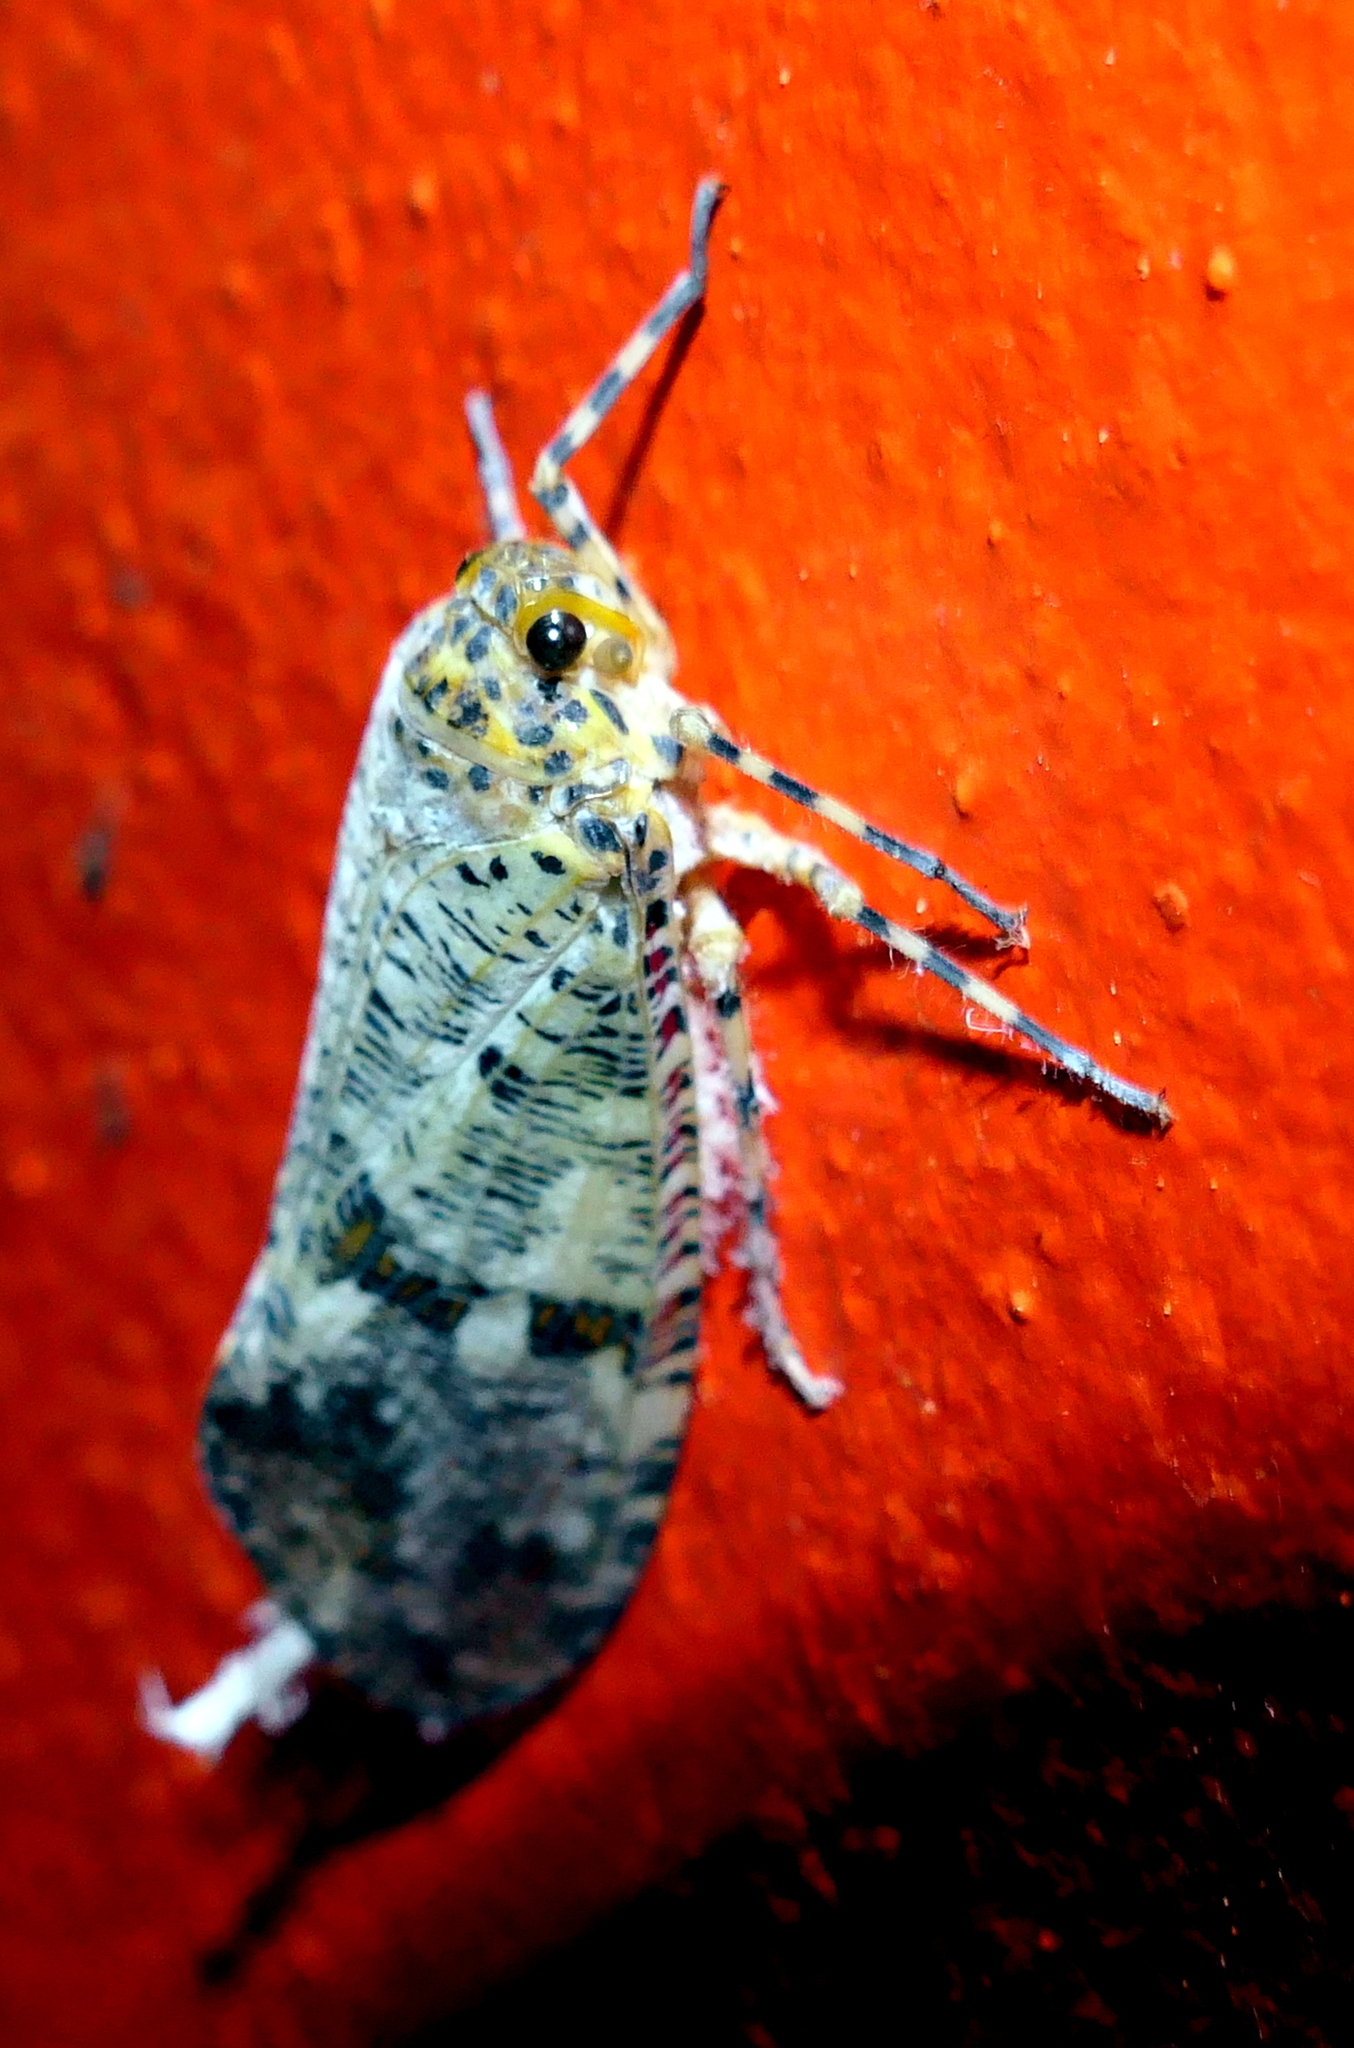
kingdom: Animalia
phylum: Arthropoda
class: Insecta
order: Hemiptera
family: Fulgoridae
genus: Phenax
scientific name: Phenax variegata
